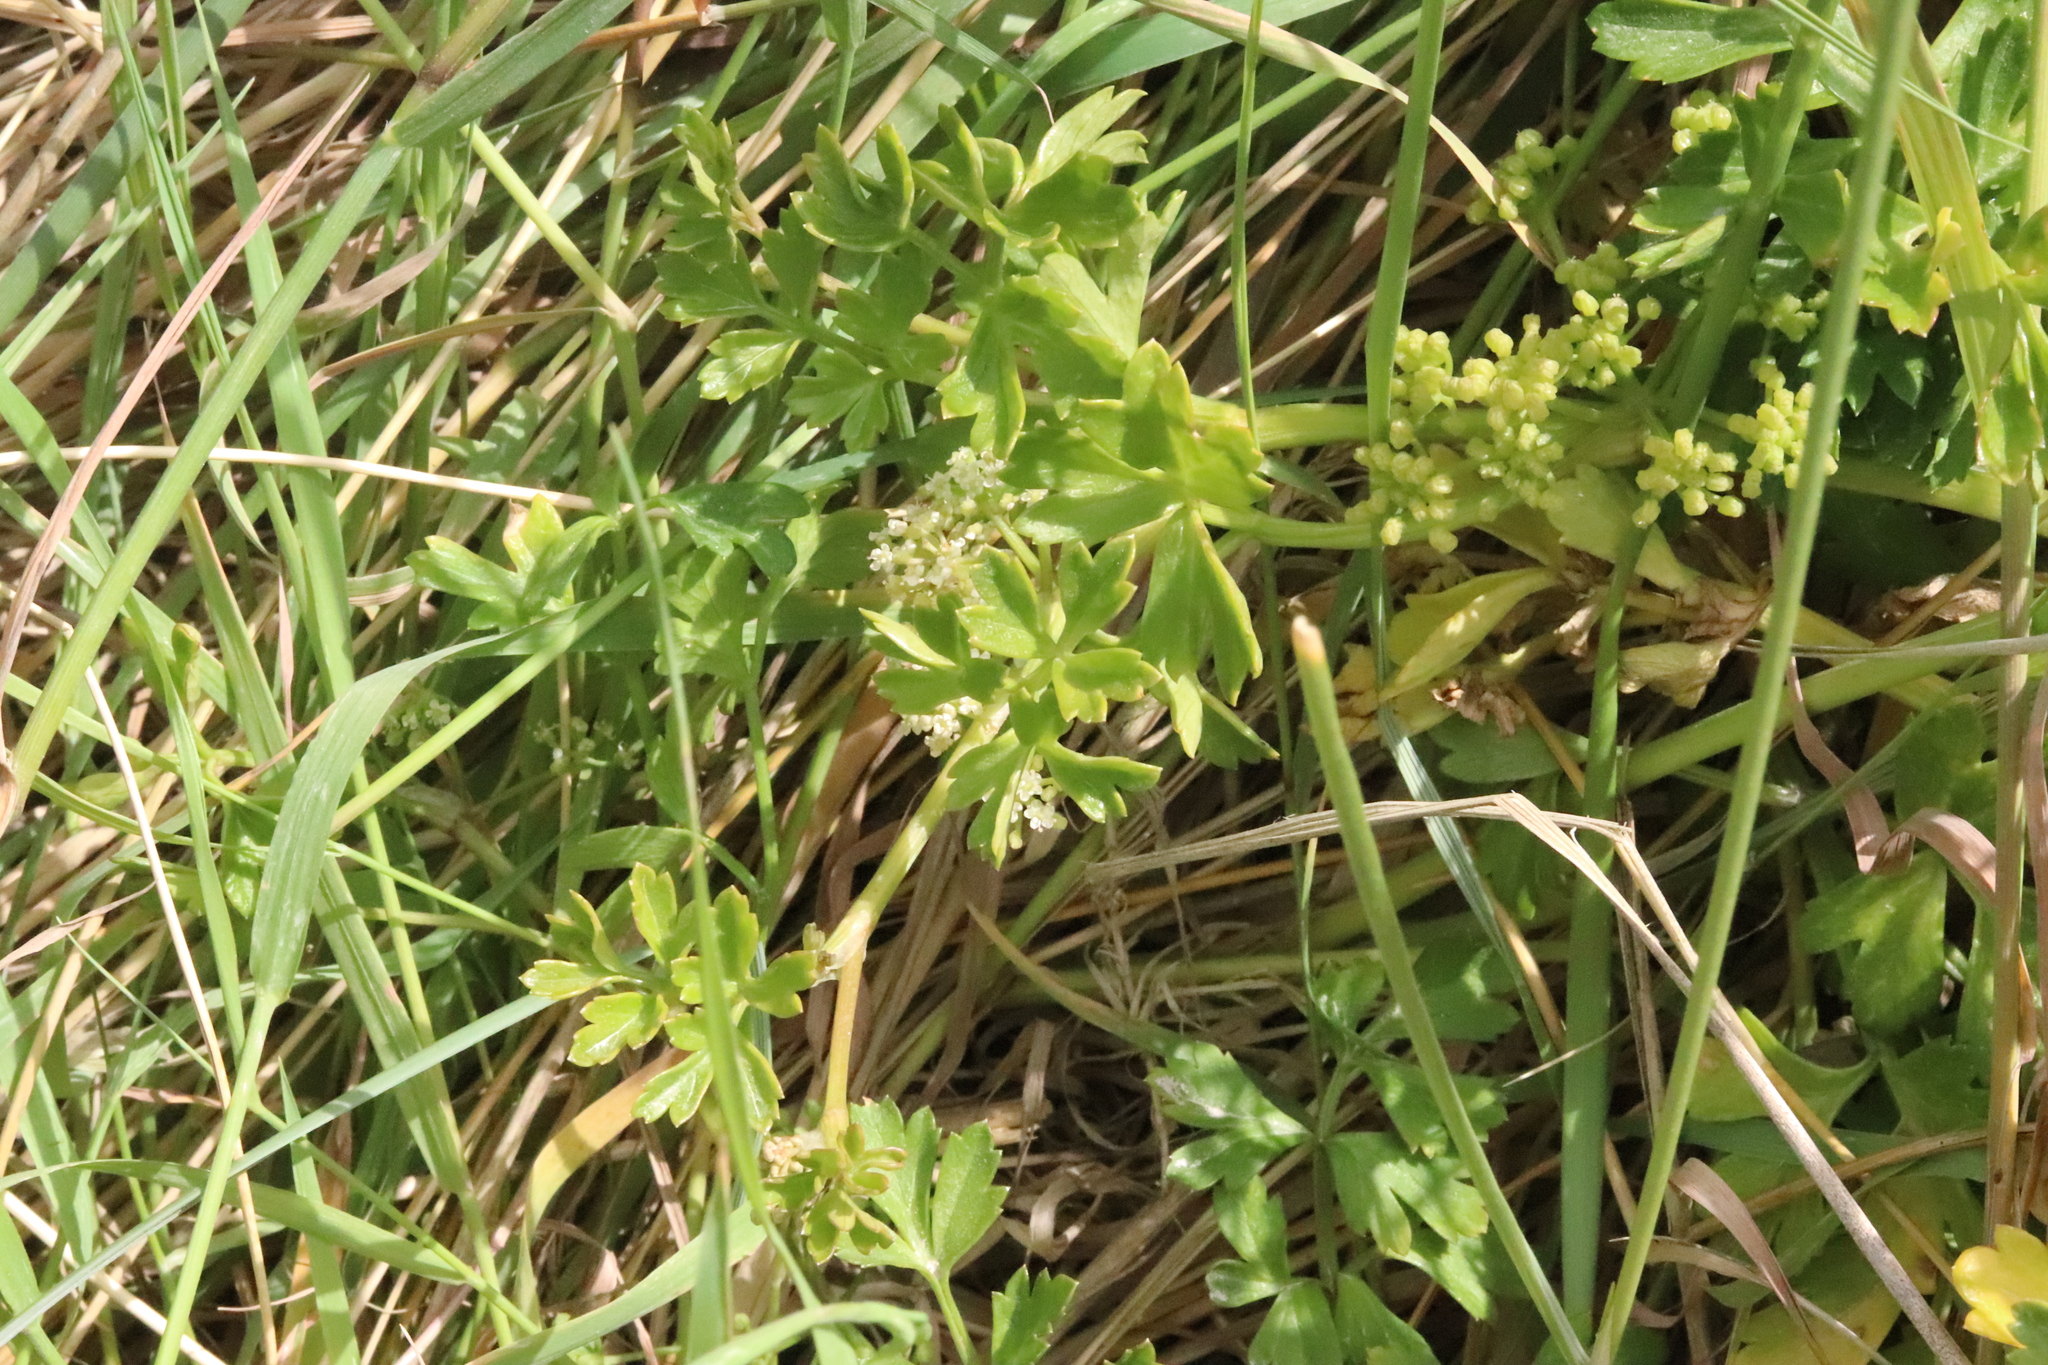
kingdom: Plantae
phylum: Tracheophyta
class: Magnoliopsida
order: Apiales
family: Apiaceae
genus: Apium
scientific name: Apium prostratum
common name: Prostrate marshwort
